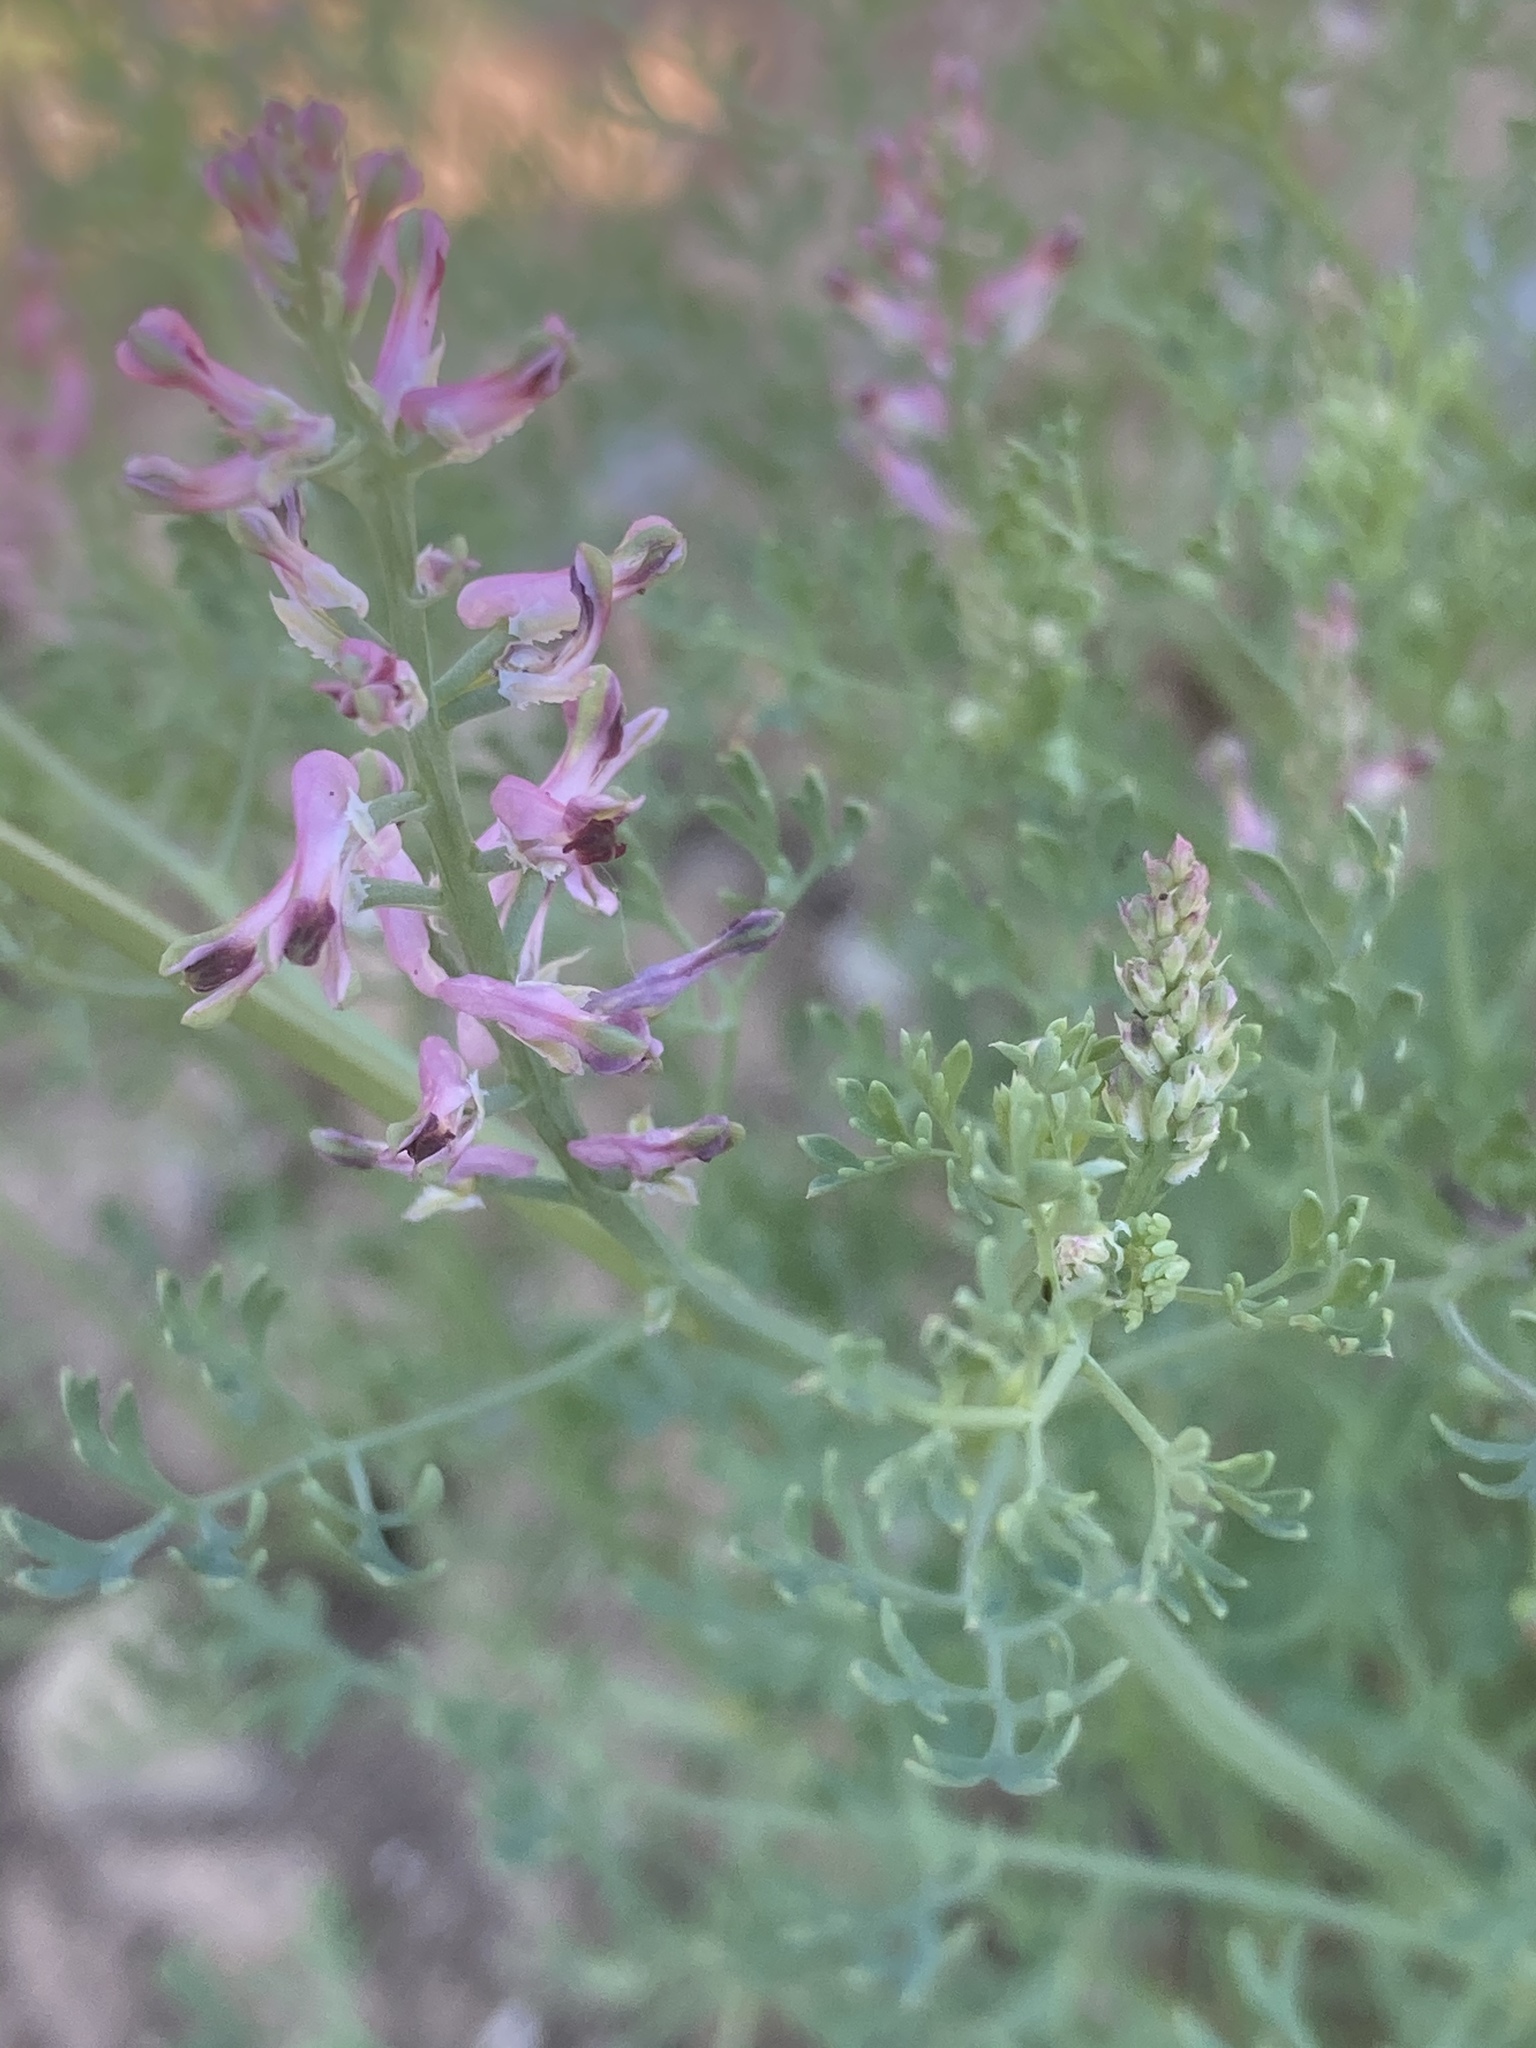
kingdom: Plantae
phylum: Tracheophyta
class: Magnoliopsida
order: Ranunculales
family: Papaveraceae
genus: Fumaria
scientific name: Fumaria officinalis
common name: Common fumitory
